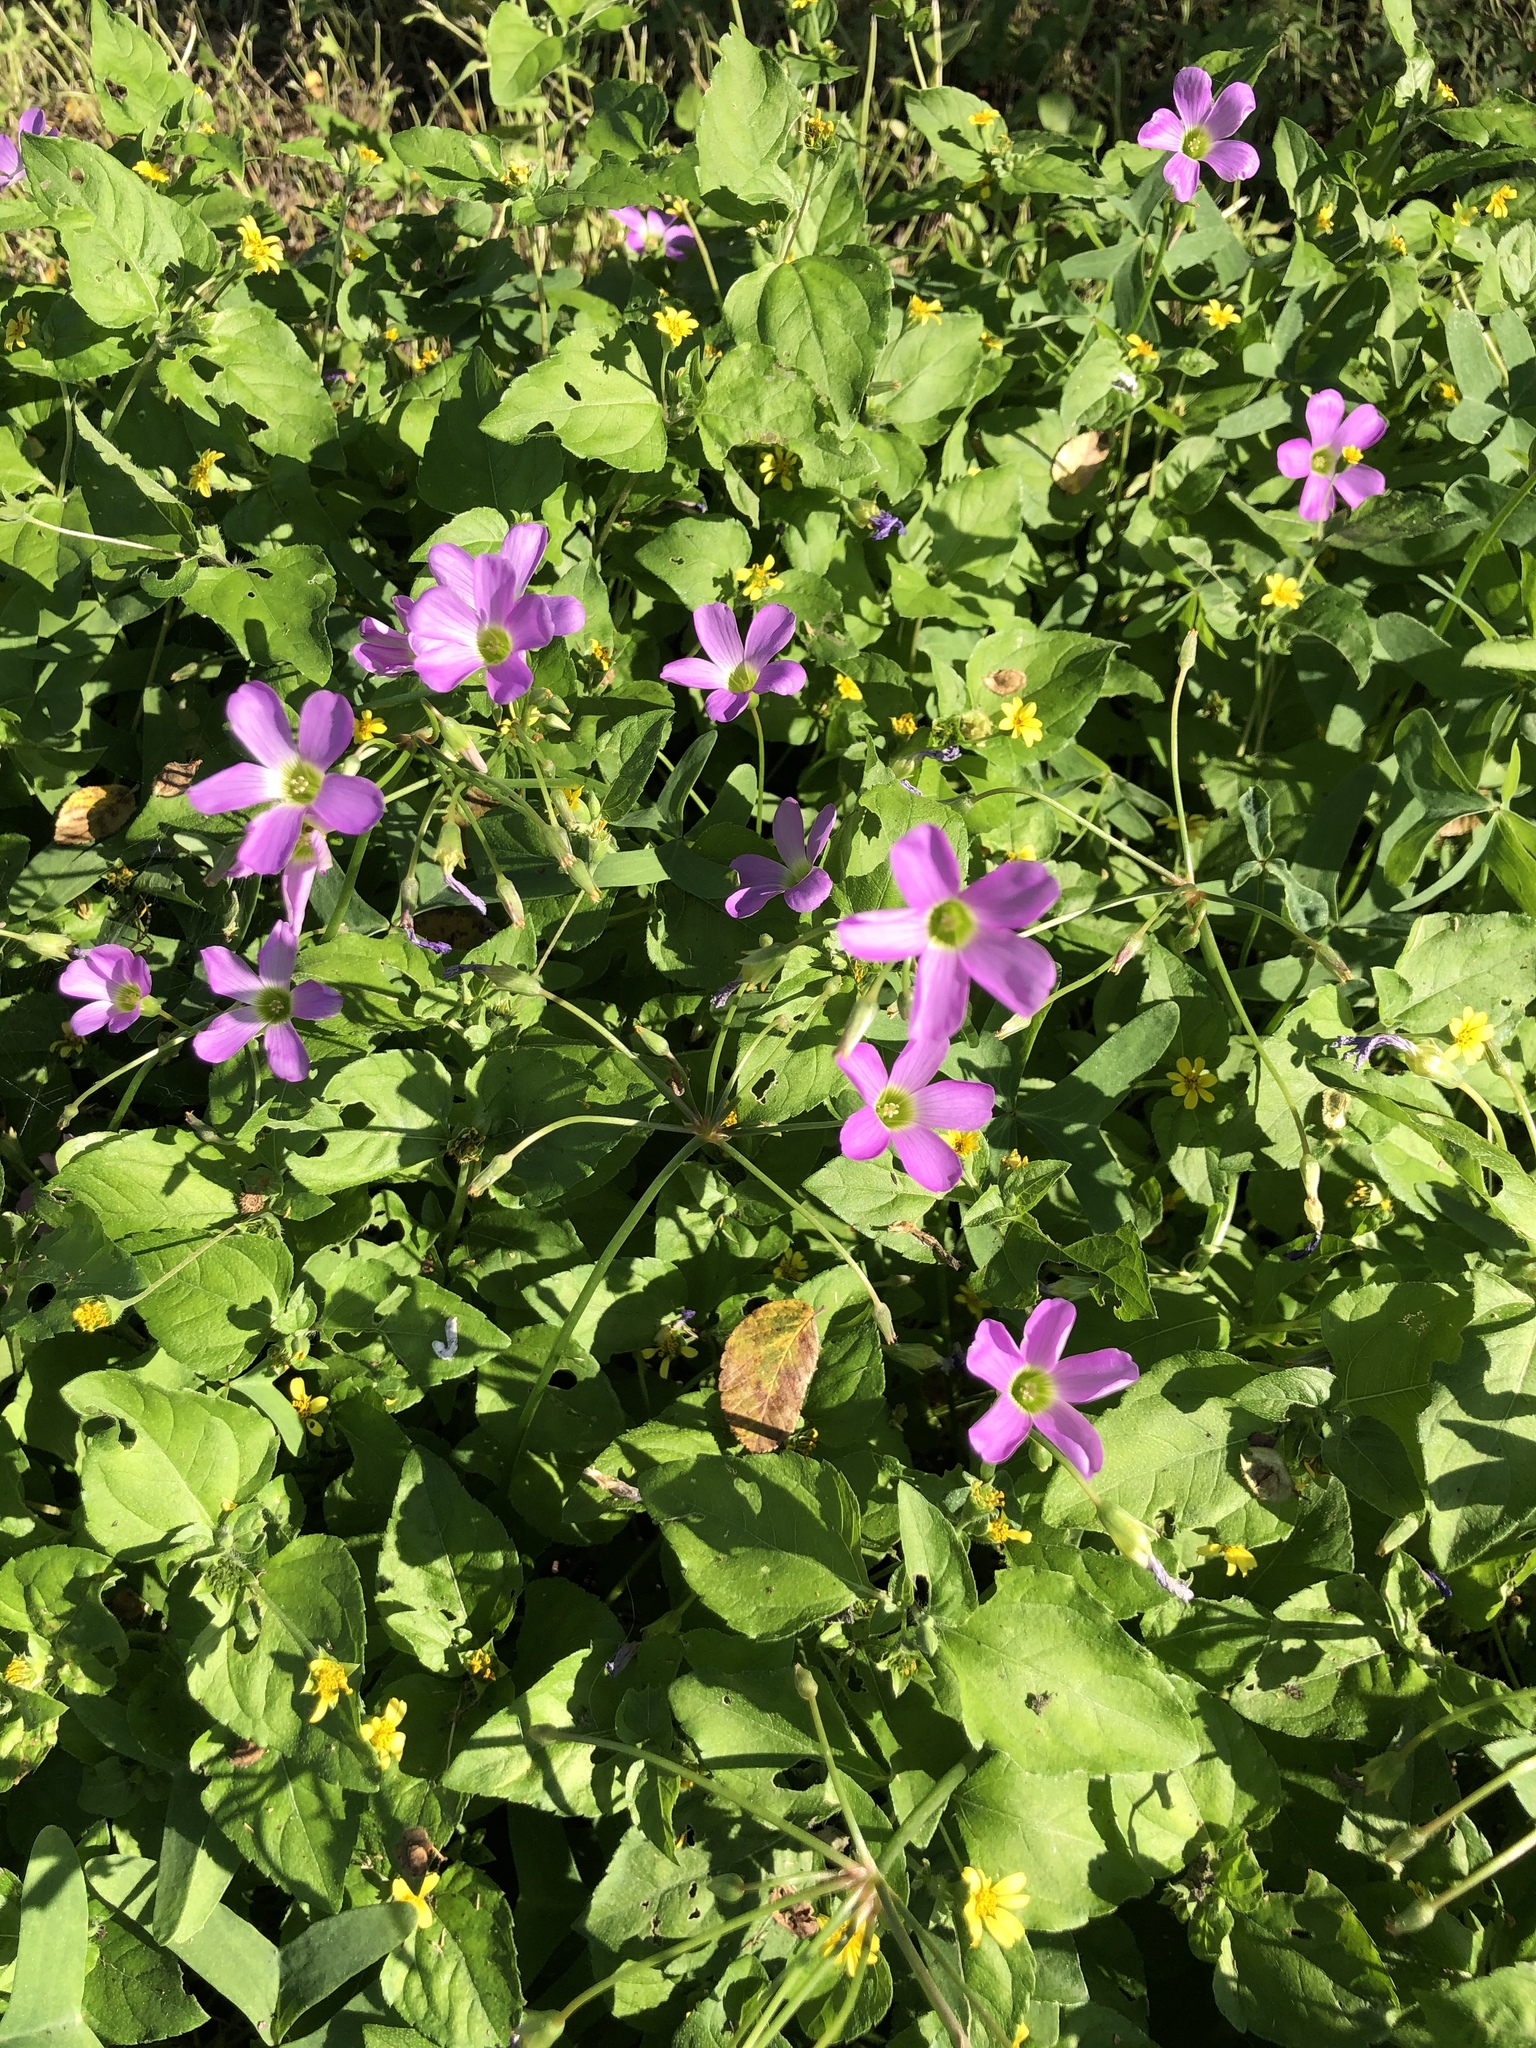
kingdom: Plantae
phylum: Tracheophyta
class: Magnoliopsida
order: Oxalidales
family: Oxalidaceae
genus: Oxalis
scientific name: Oxalis drummondii
